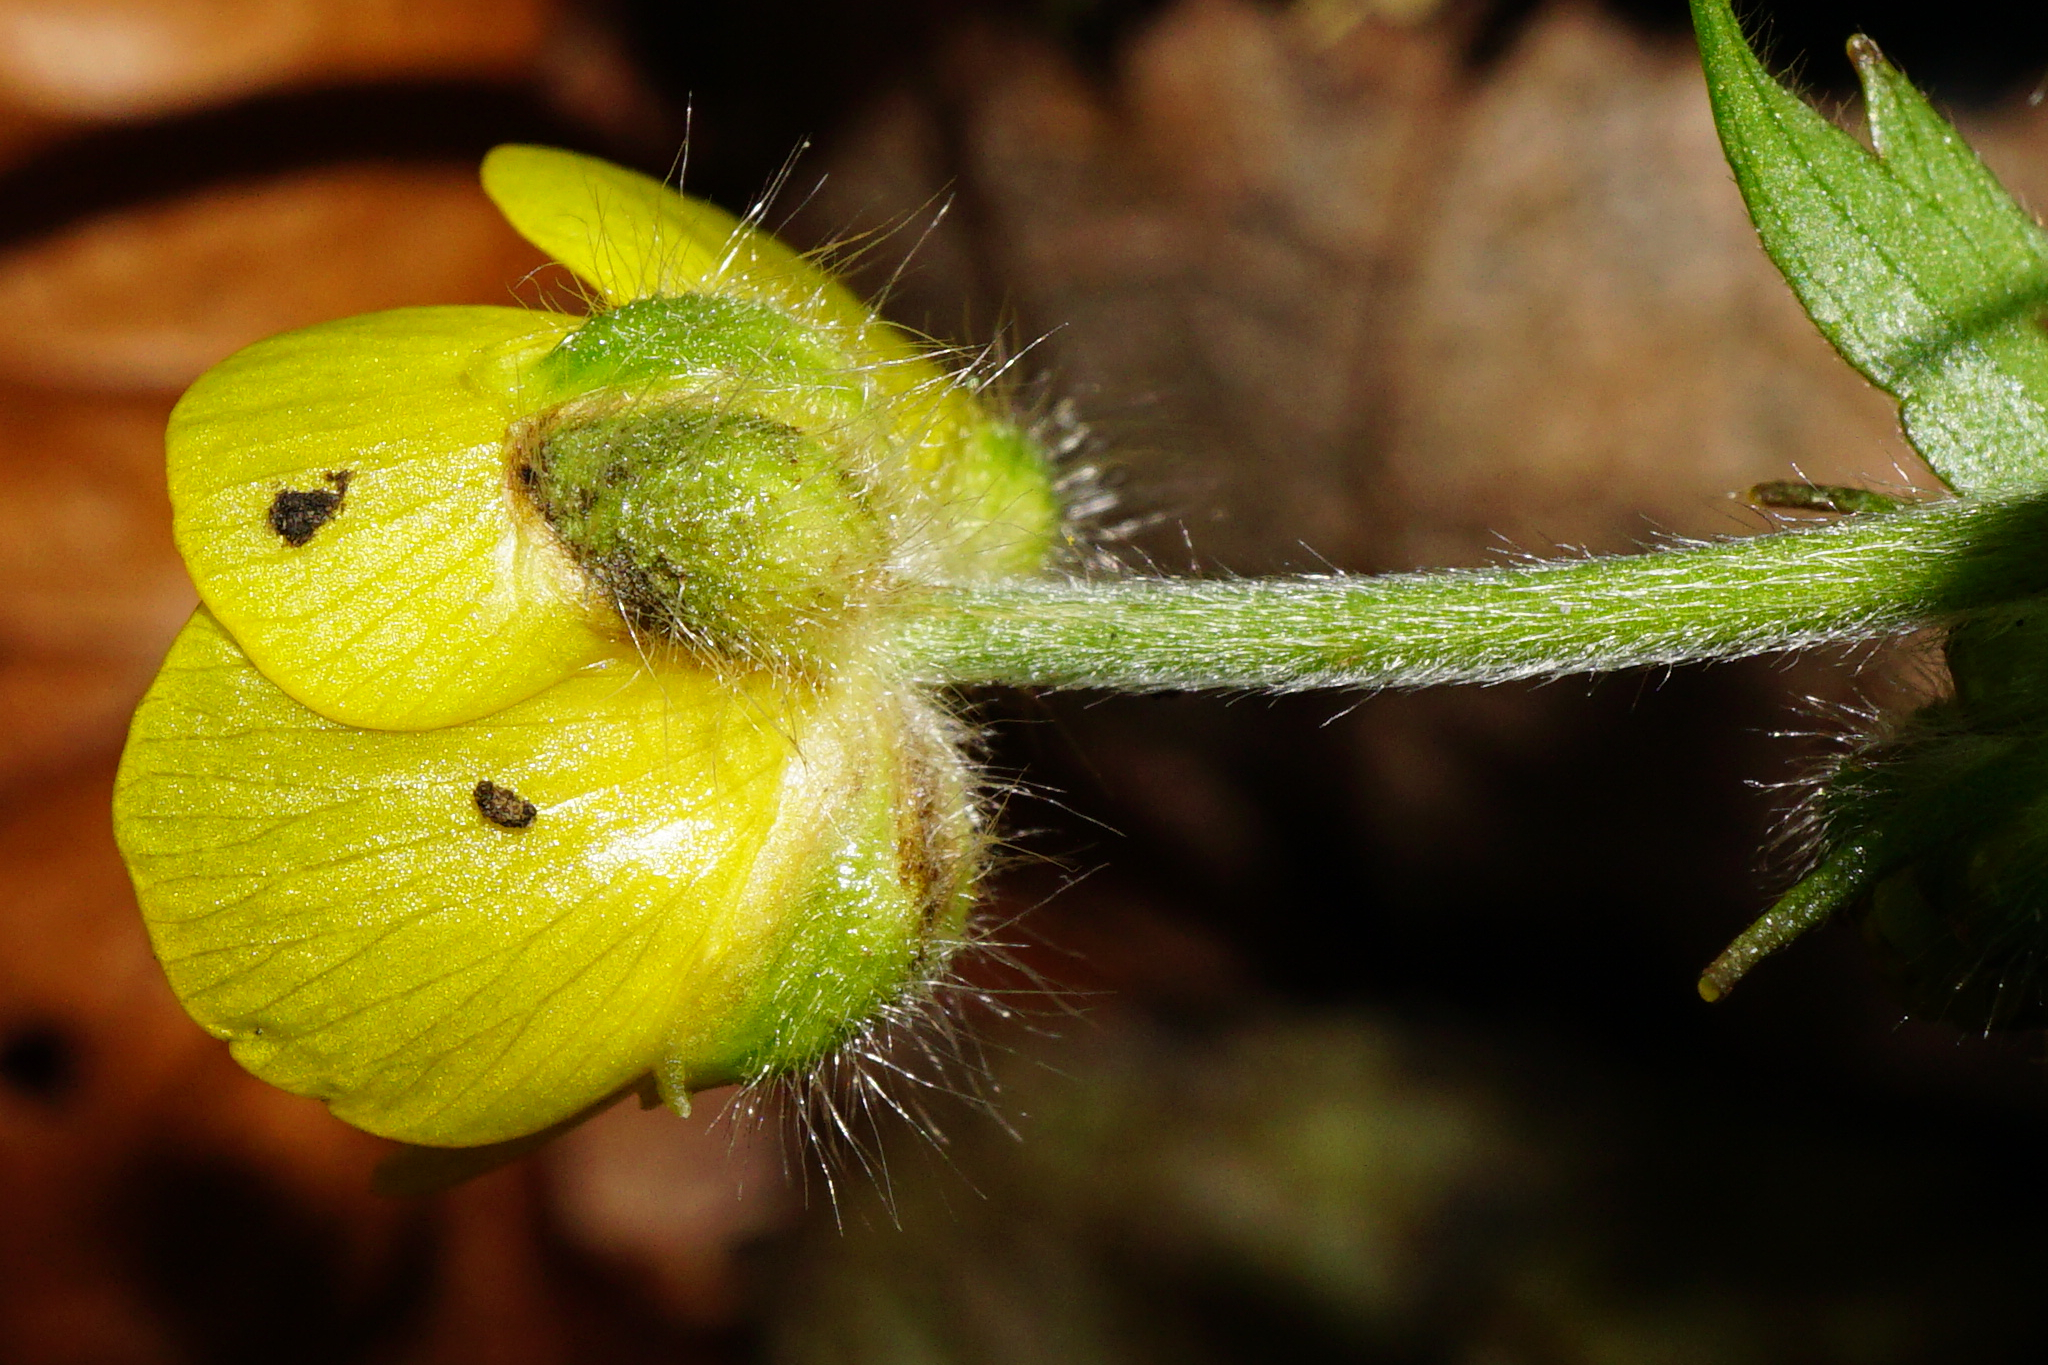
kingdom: Plantae
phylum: Tracheophyta
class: Magnoliopsida
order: Ranunculales
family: Ranunculaceae
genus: Ranunculus
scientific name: Ranunculus lanuginosus
